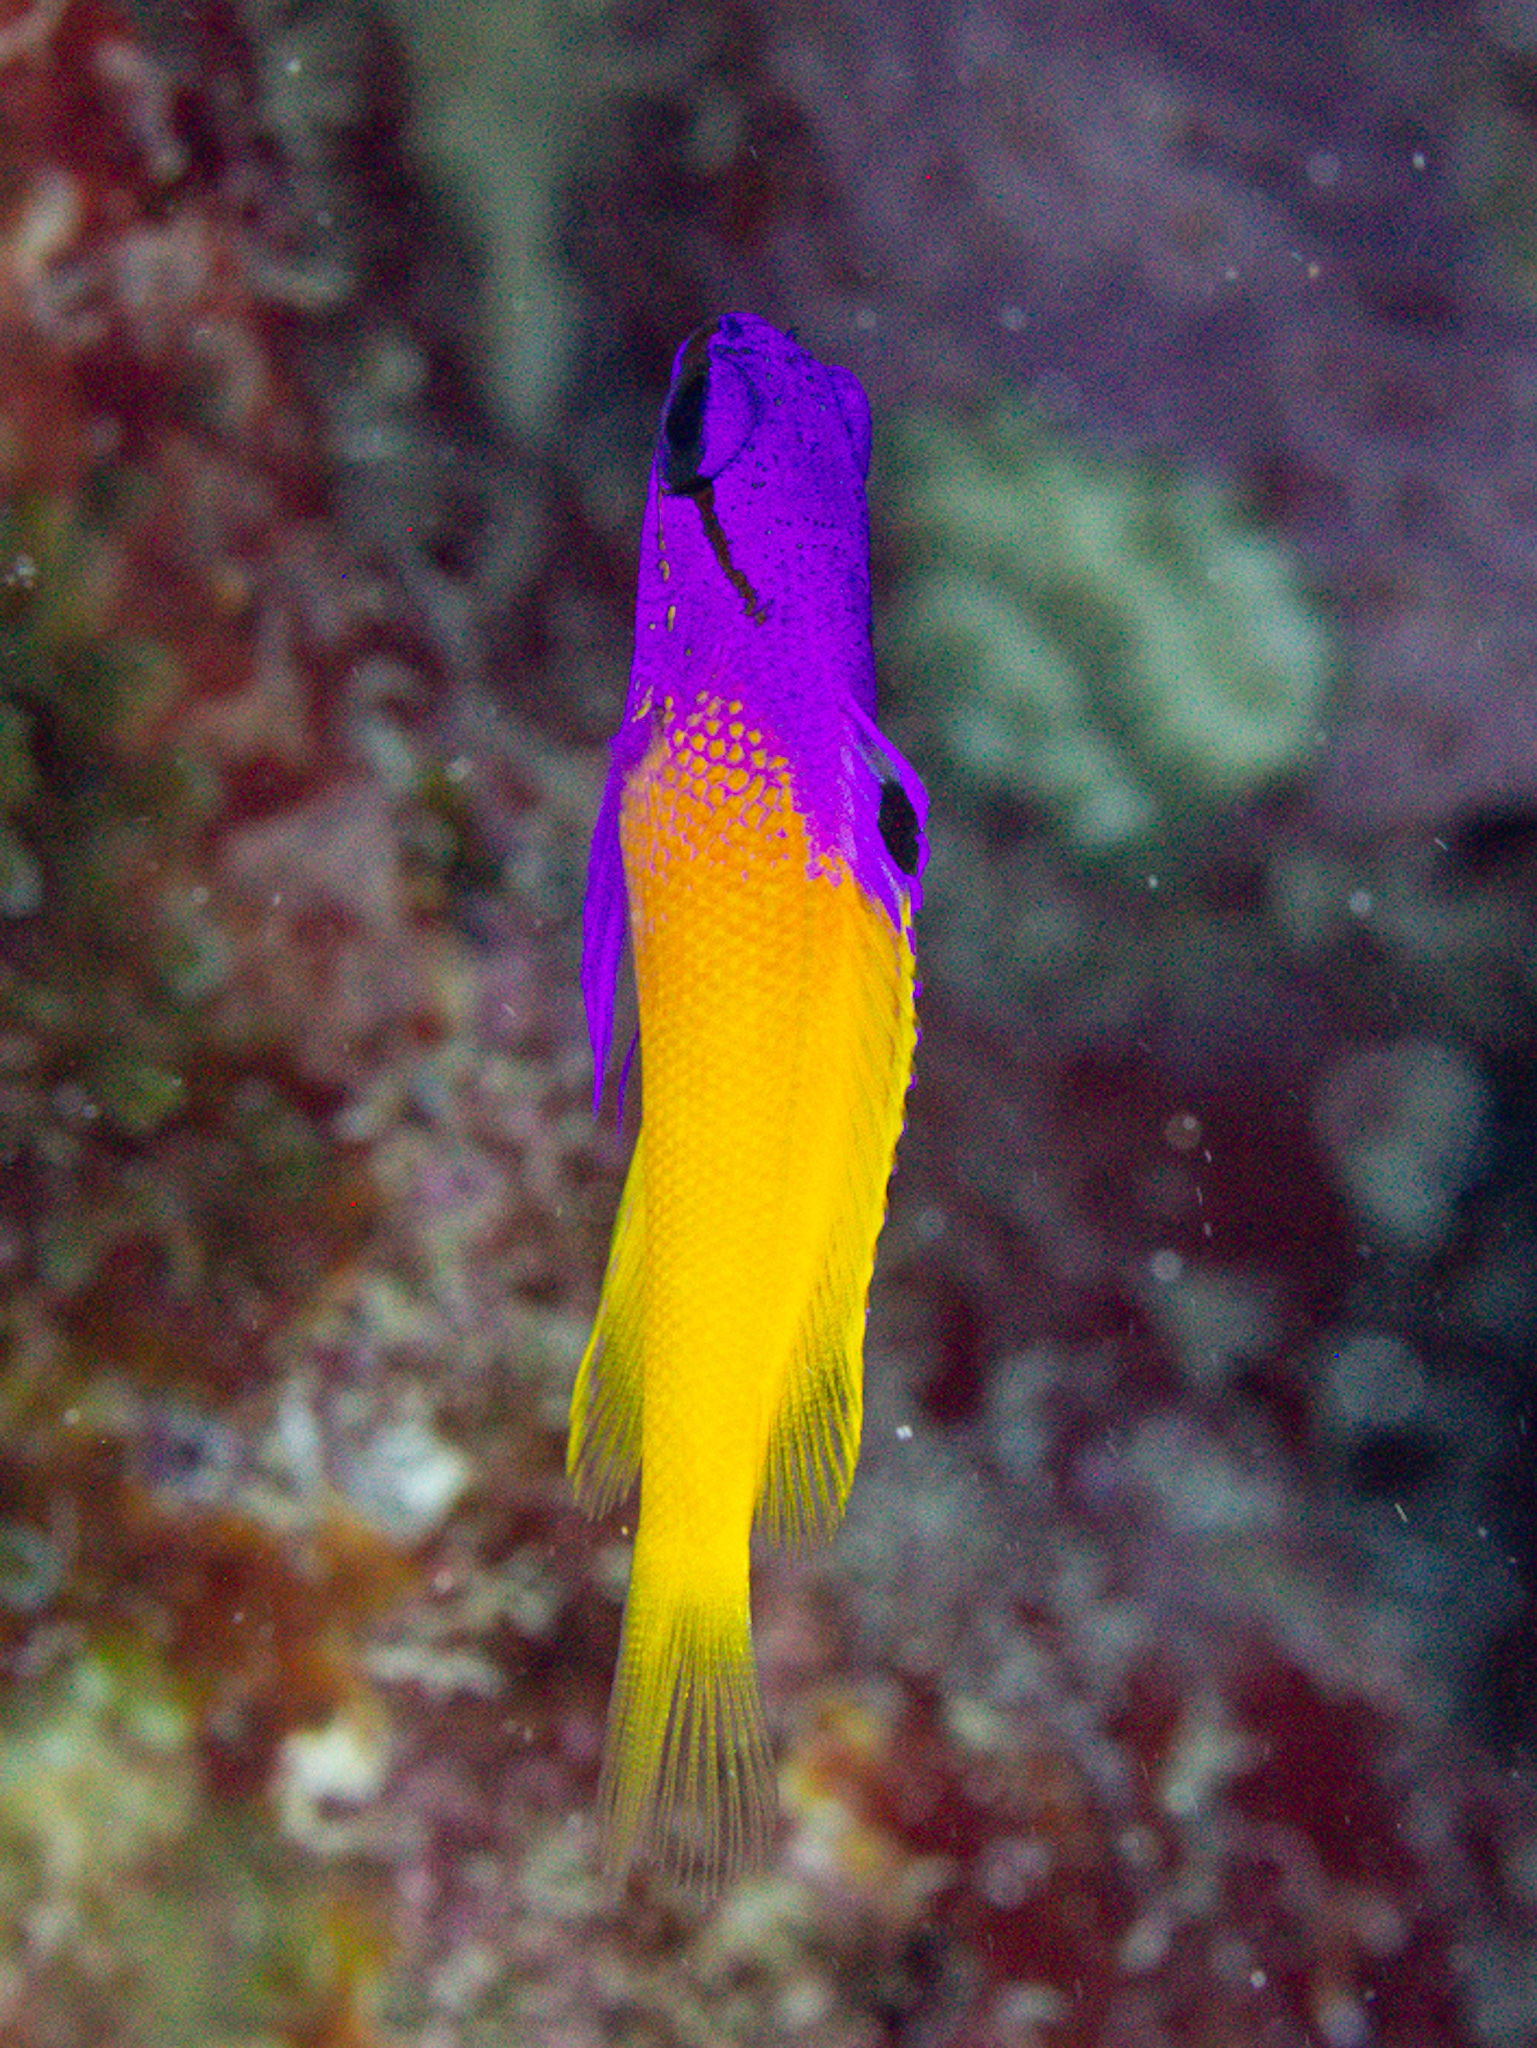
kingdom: Animalia
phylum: Chordata
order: Perciformes
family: Grammatidae
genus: Gramma
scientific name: Gramma loreto
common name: Fairy basslet
